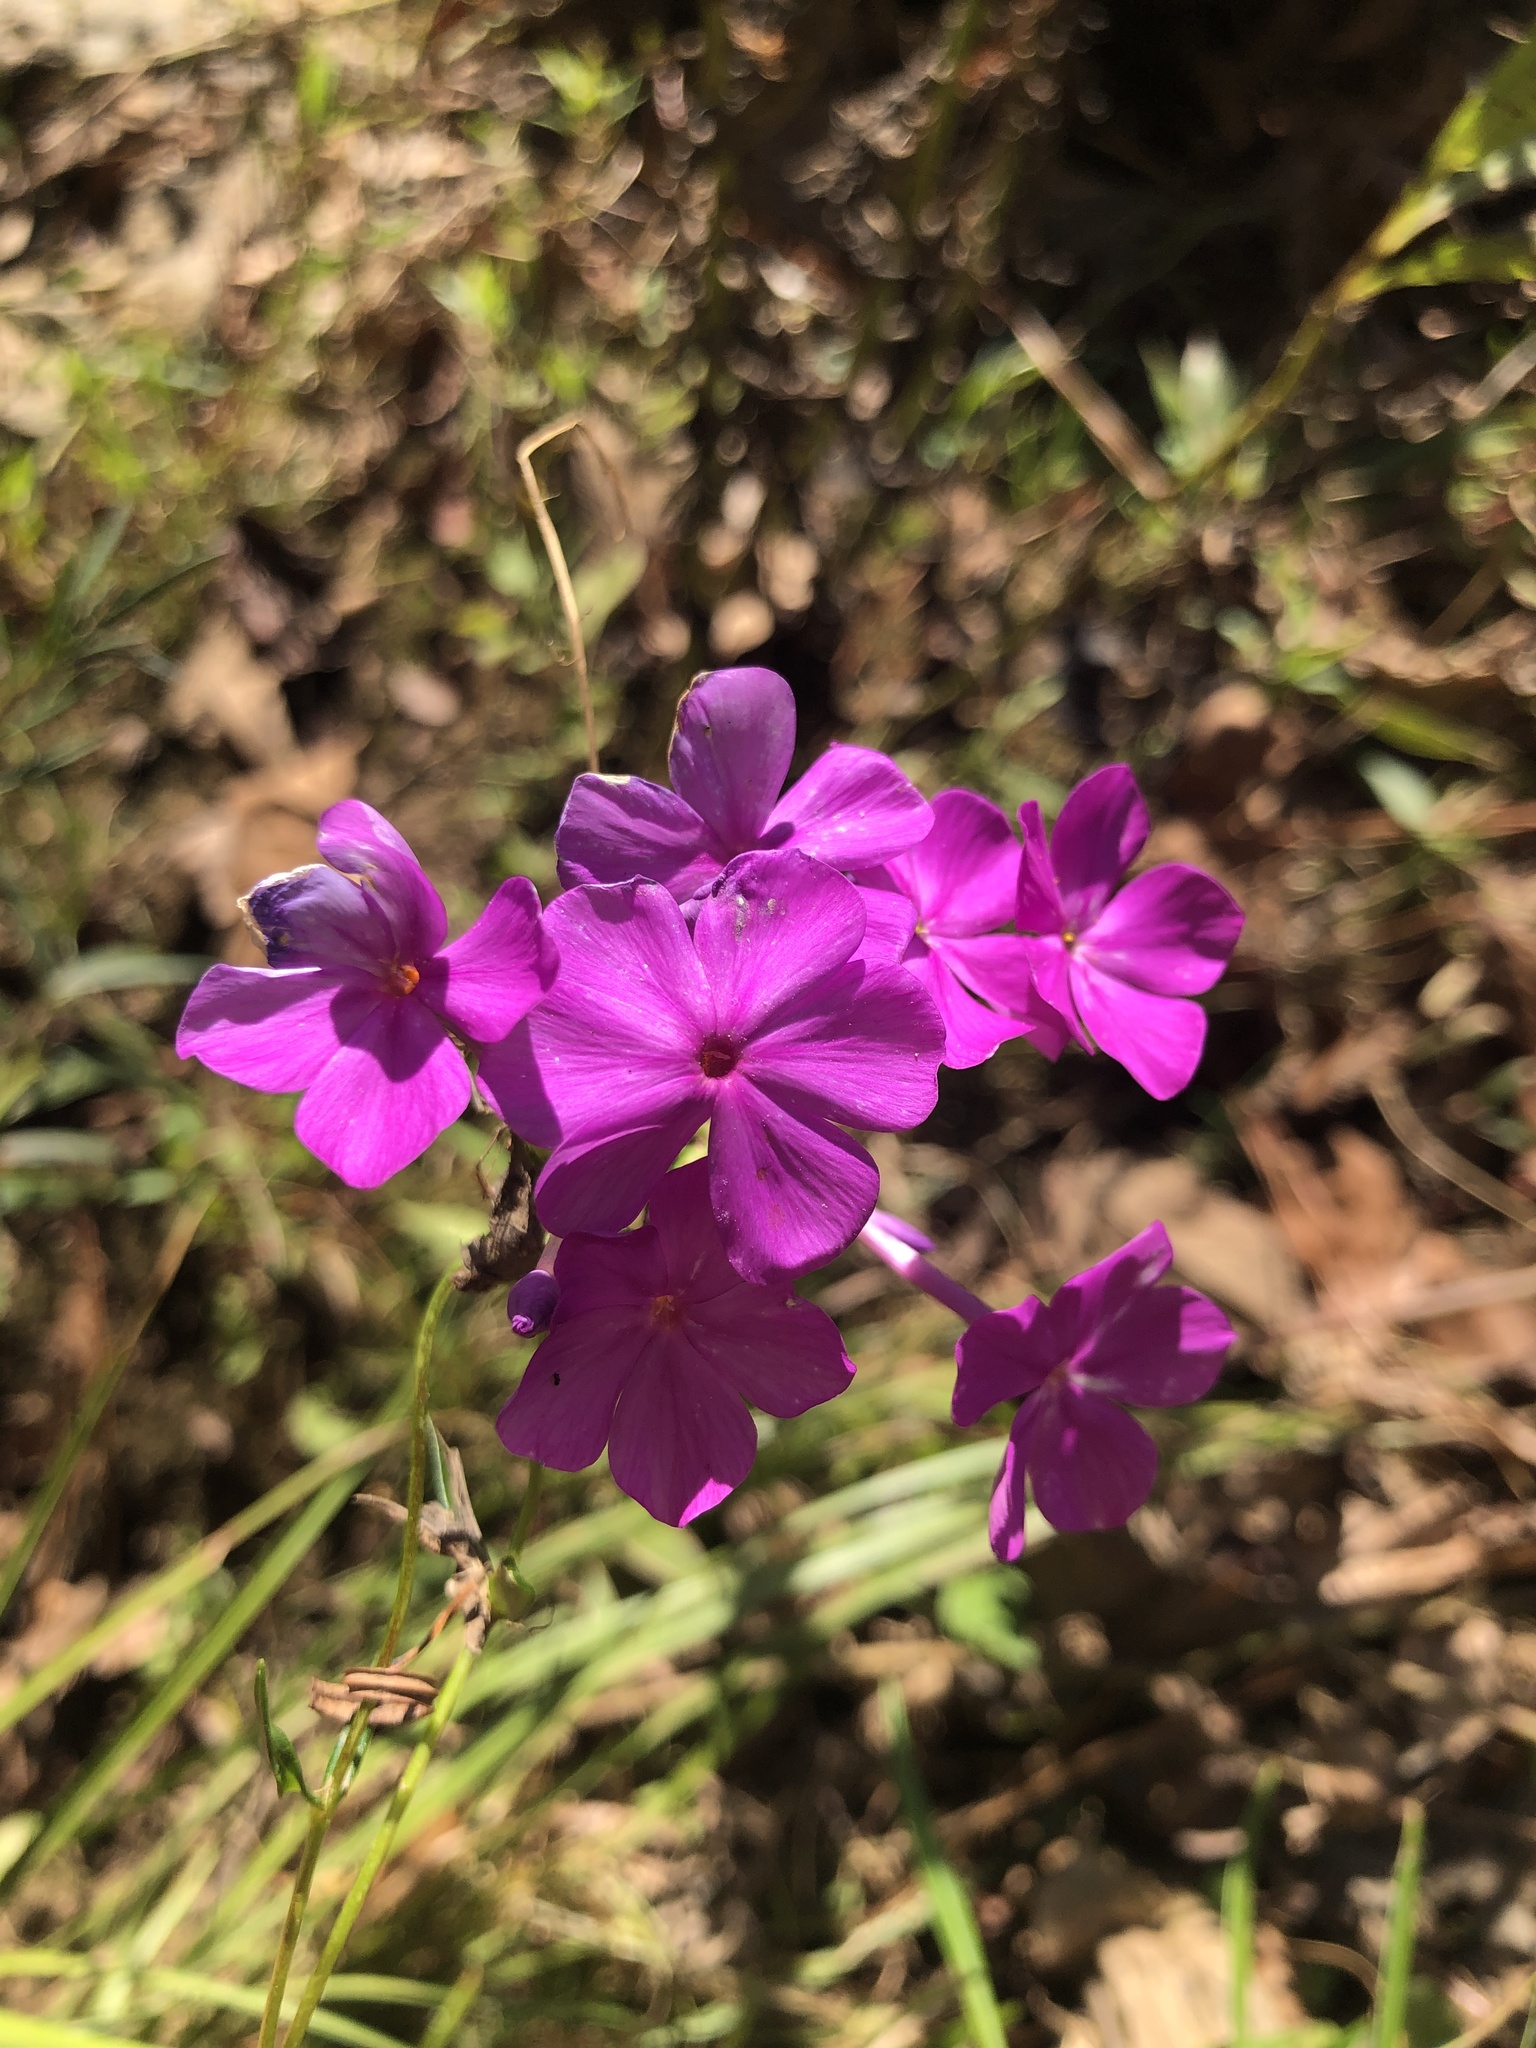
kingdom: Plantae
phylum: Tracheophyta
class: Magnoliopsida
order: Ericales
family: Polemoniaceae
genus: Phlox
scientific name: Phlox carolina
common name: Thick-leaf phlox
